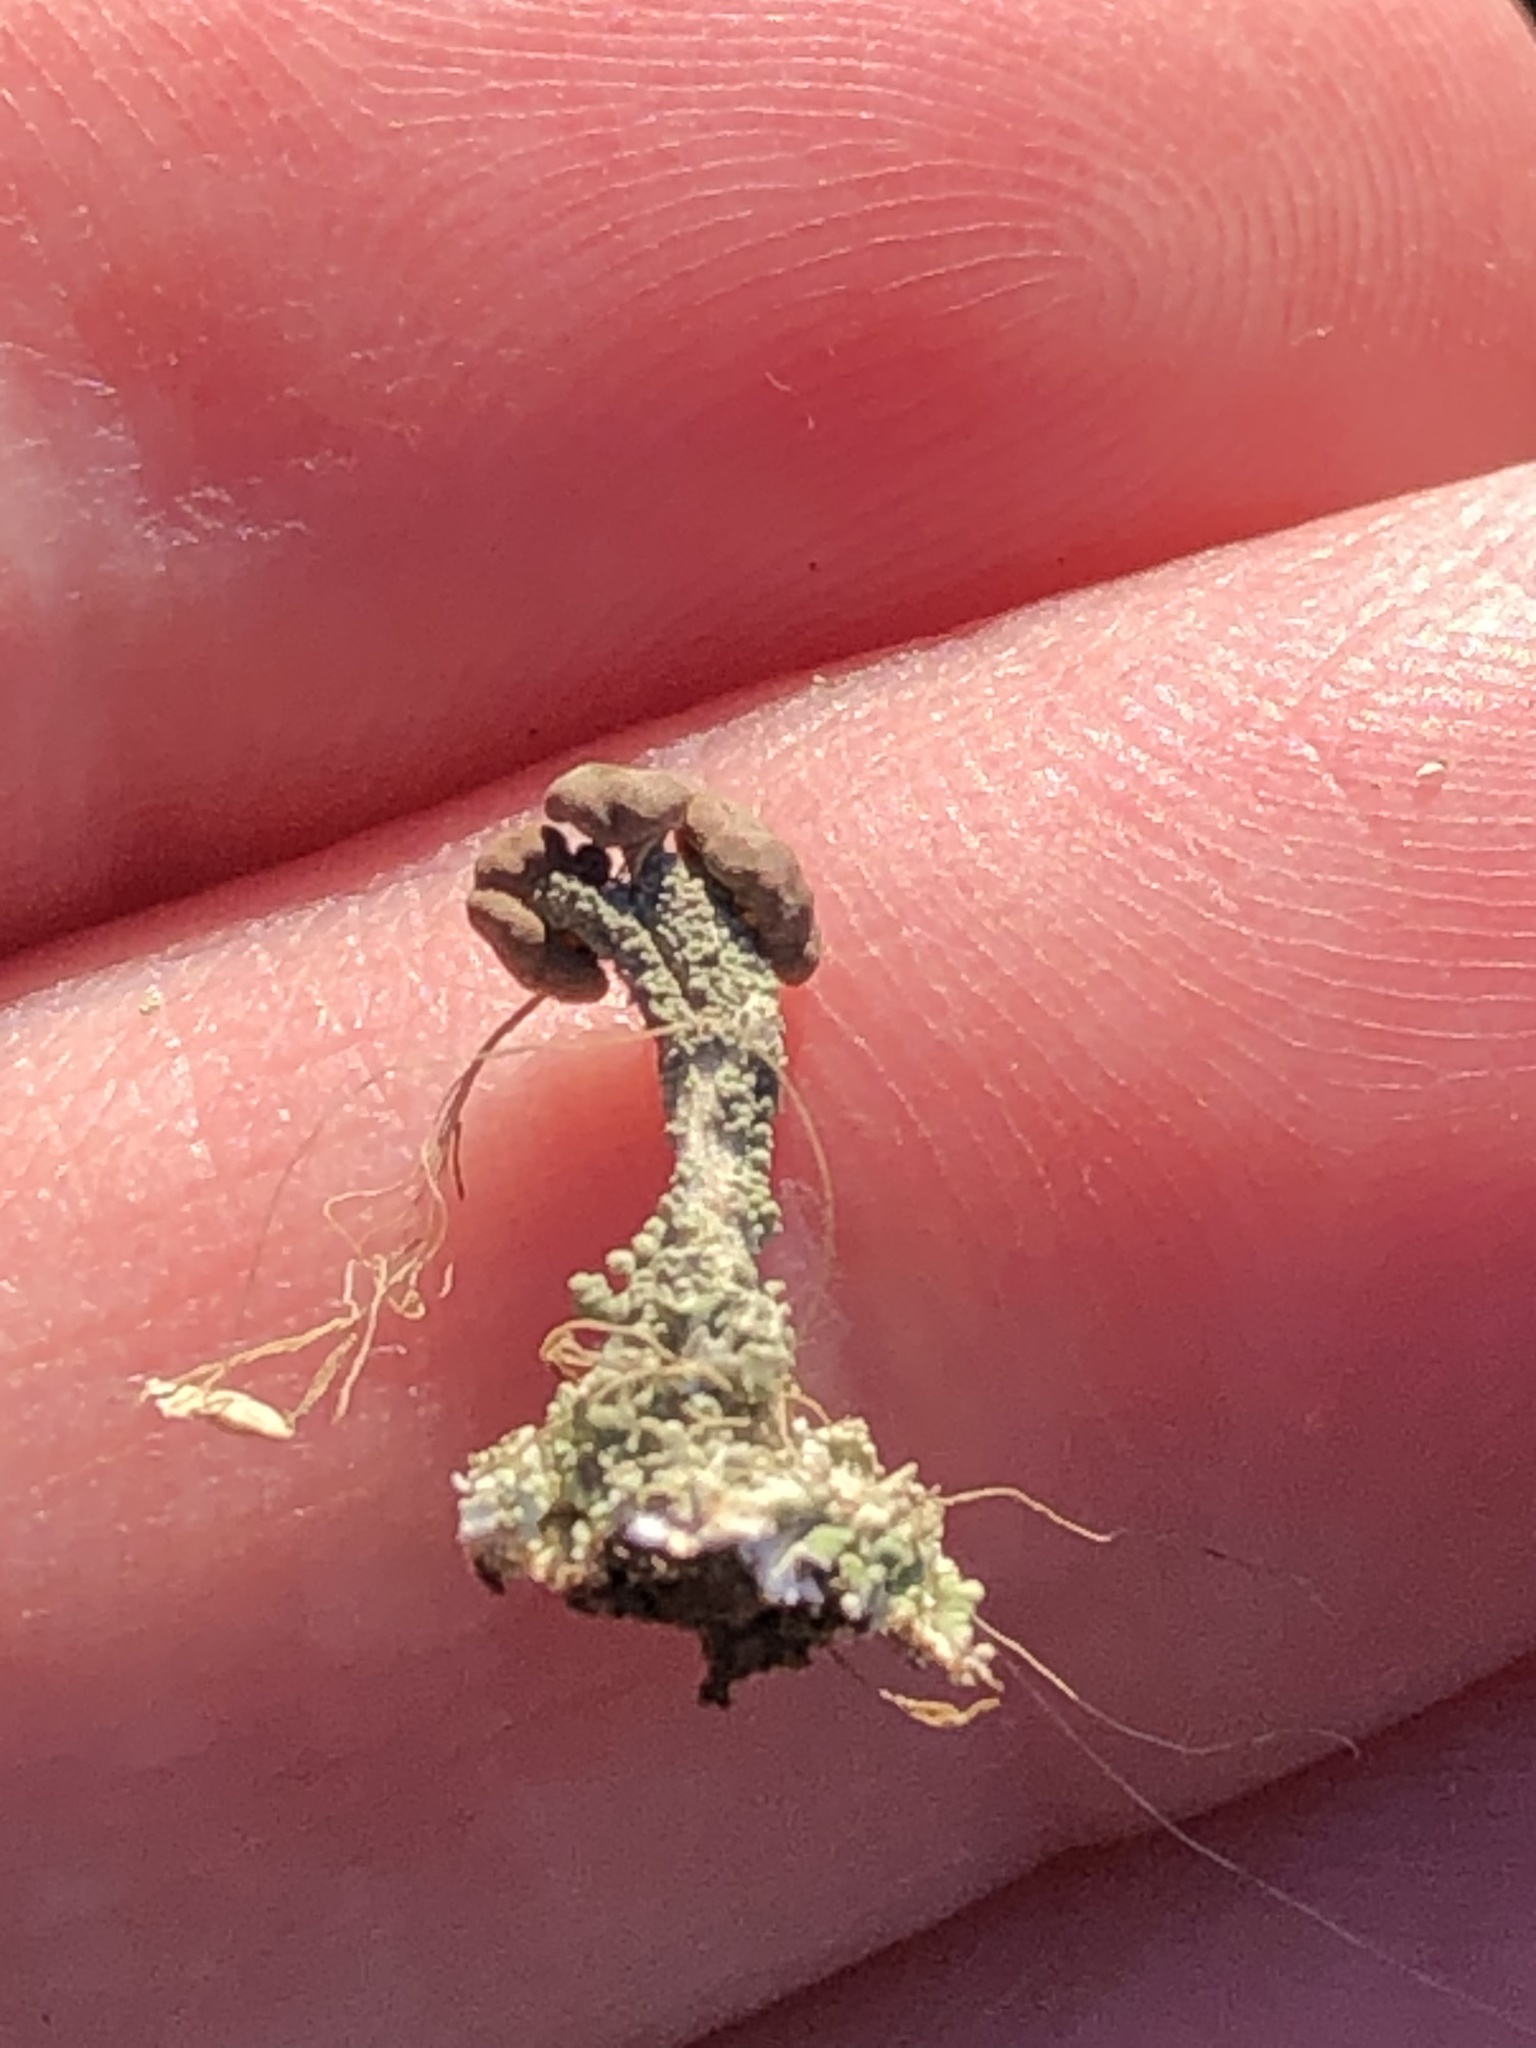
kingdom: Fungi
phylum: Ascomycota
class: Lecanoromycetes
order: Lecanorales
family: Cladoniaceae
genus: Cladonia
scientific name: Cladonia peziziformis
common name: Cup lichen
